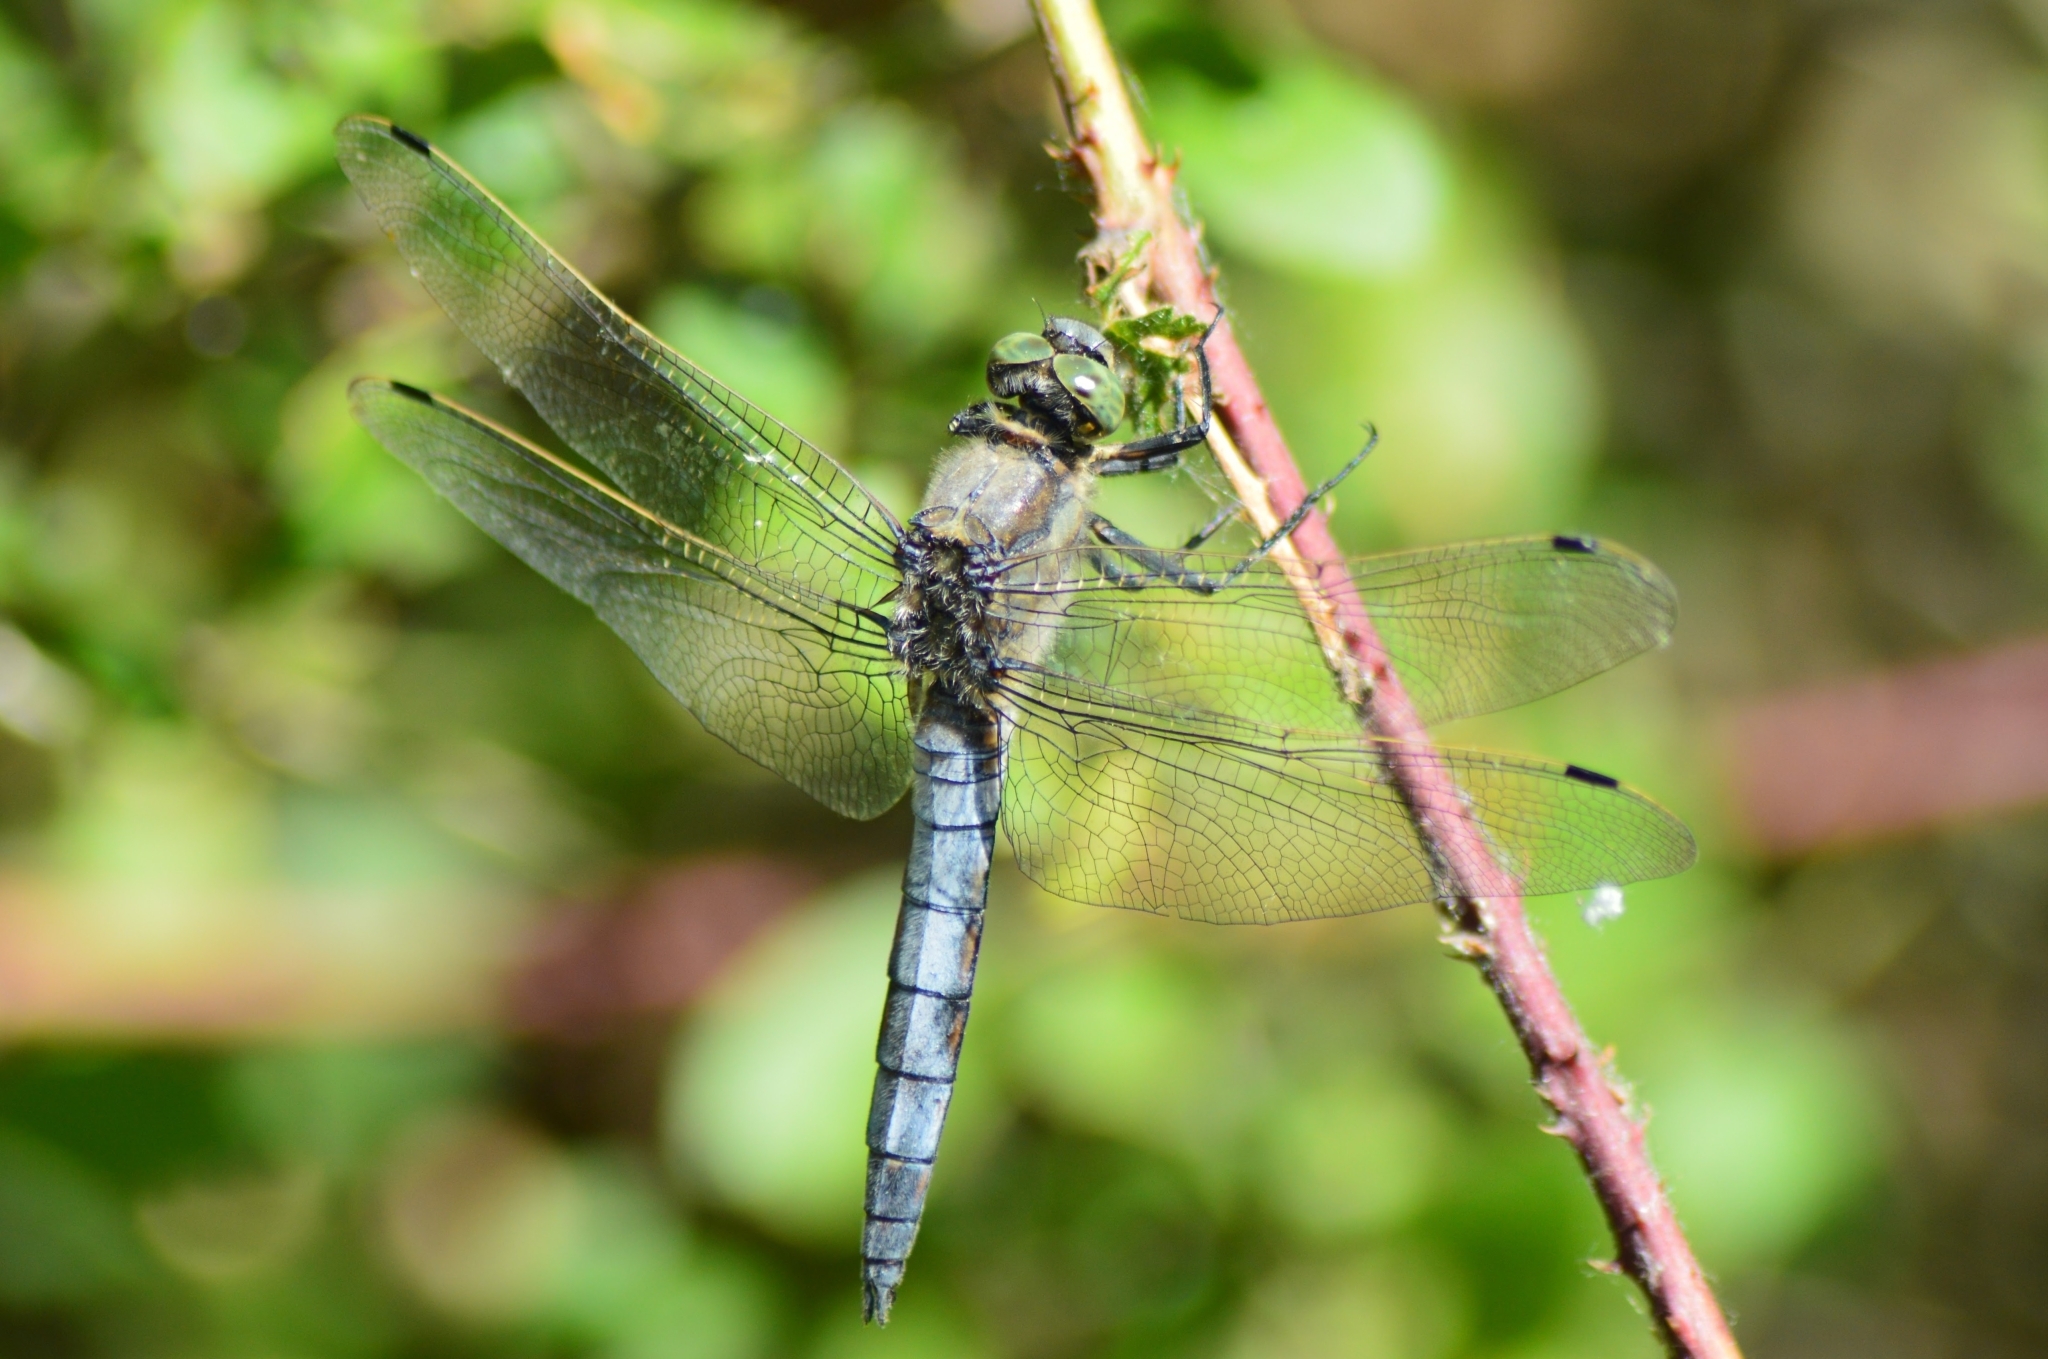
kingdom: Animalia
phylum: Arthropoda
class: Insecta
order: Odonata
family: Libellulidae
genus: Orthetrum
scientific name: Orthetrum cancellatum
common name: Black-tailed skimmer
